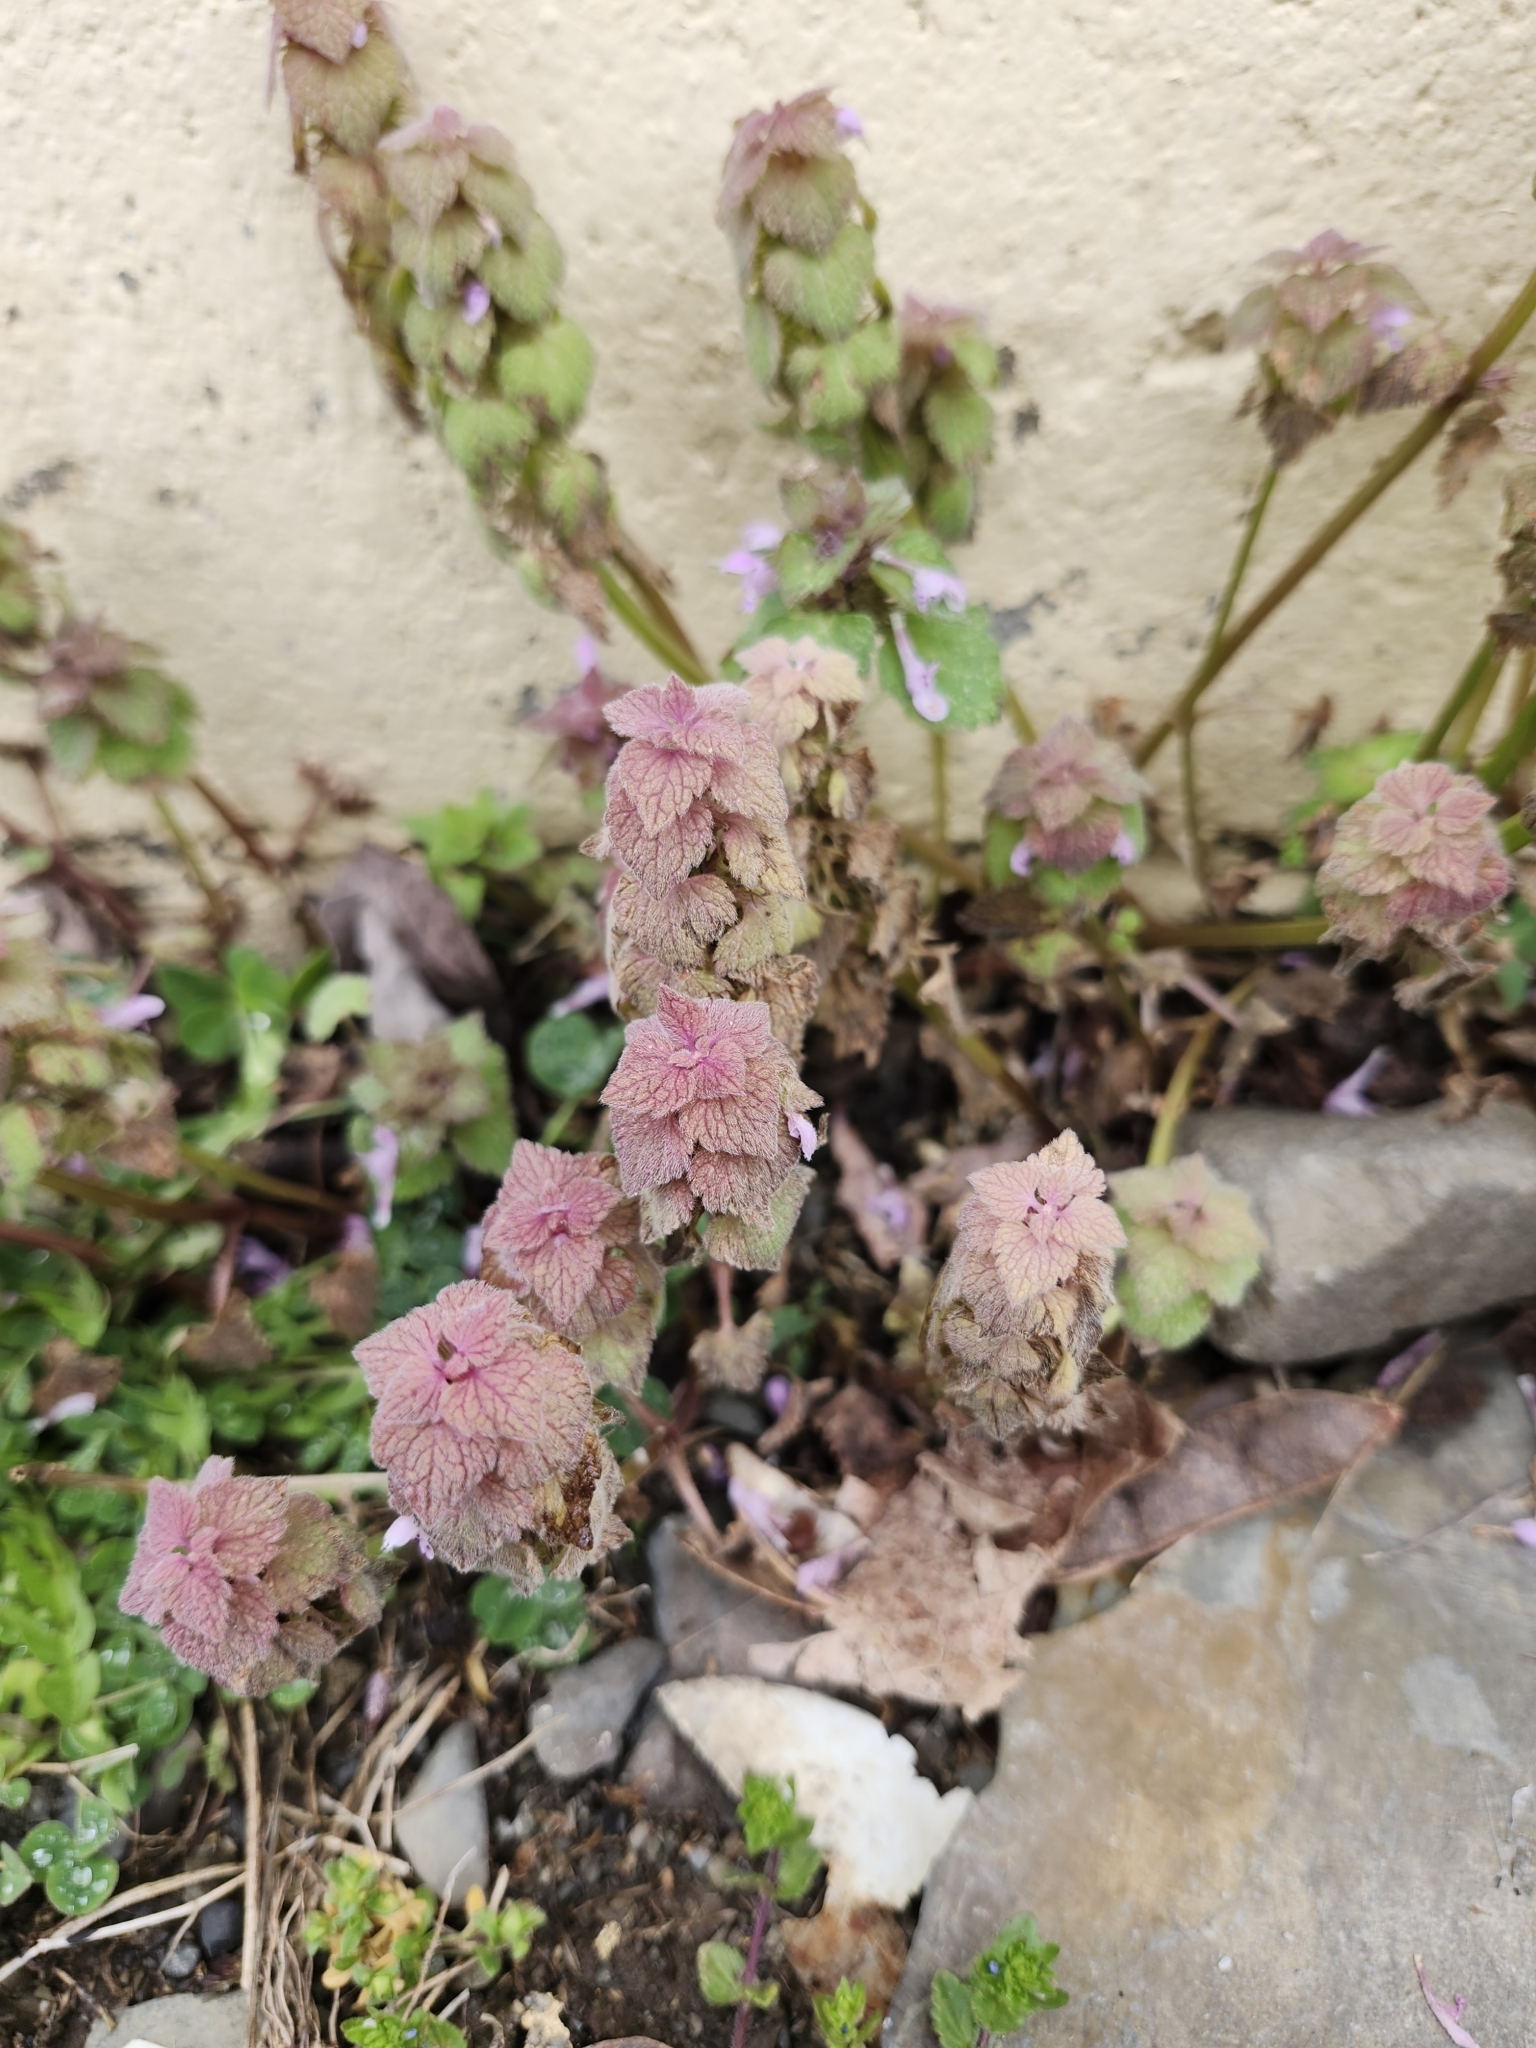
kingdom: Plantae
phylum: Tracheophyta
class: Magnoliopsida
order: Lamiales
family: Lamiaceae
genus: Lamium
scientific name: Lamium purpureum
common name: Red dead-nettle
